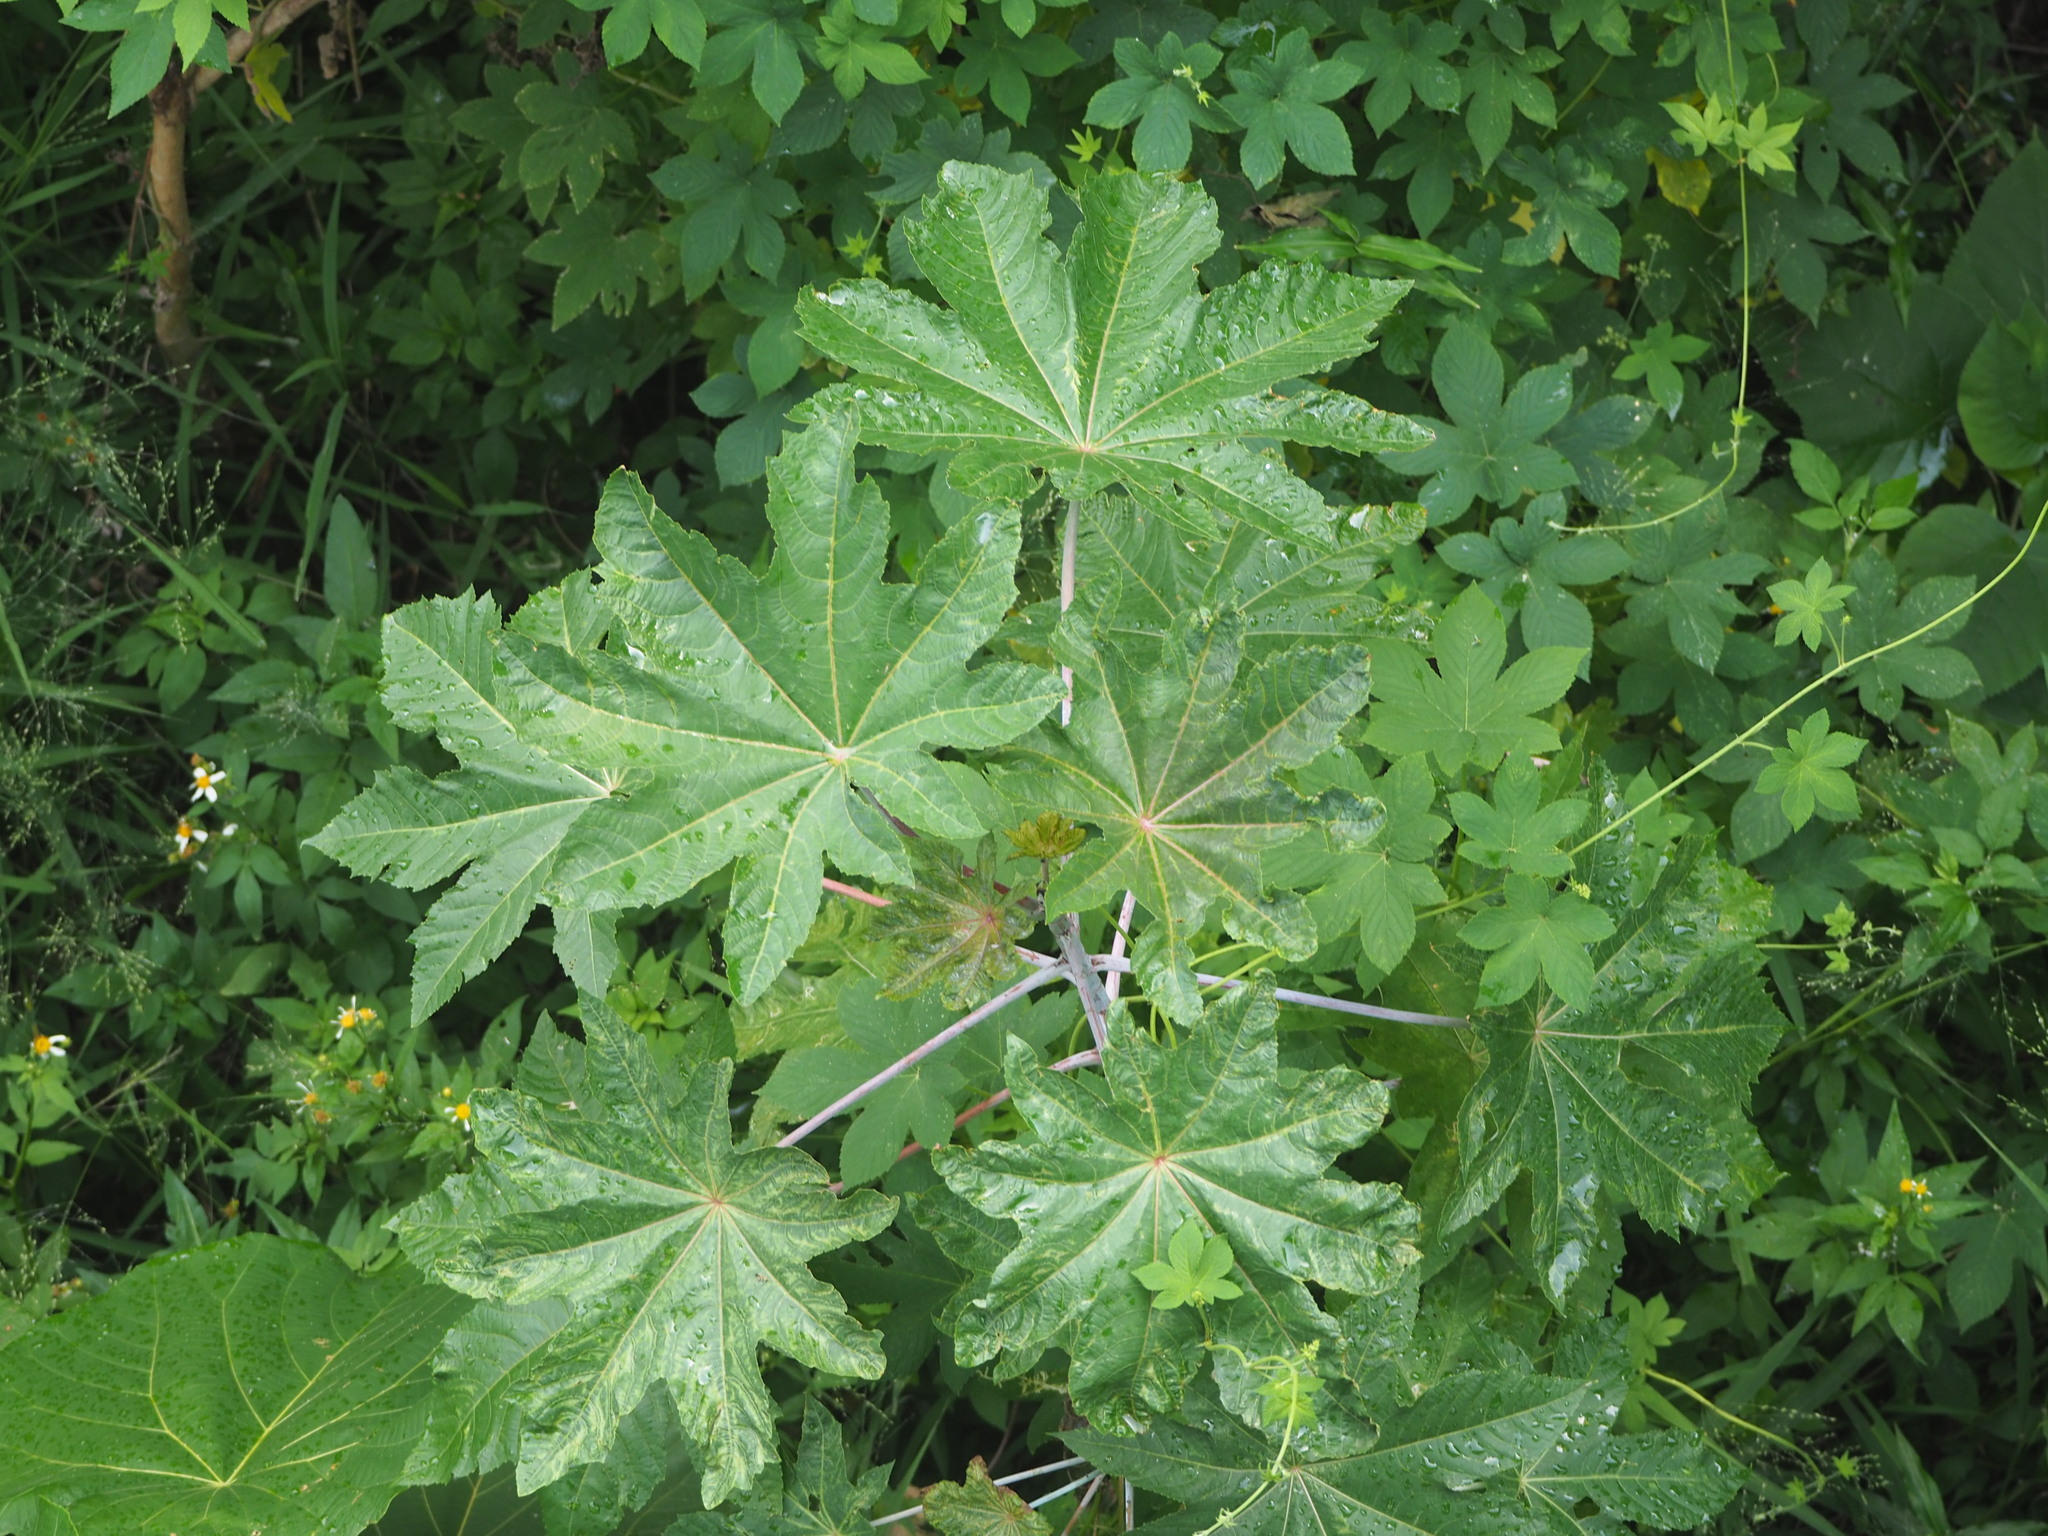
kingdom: Plantae
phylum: Tracheophyta
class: Magnoliopsida
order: Malpighiales
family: Euphorbiaceae
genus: Ricinus
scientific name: Ricinus communis
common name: Castor-oil-plant
